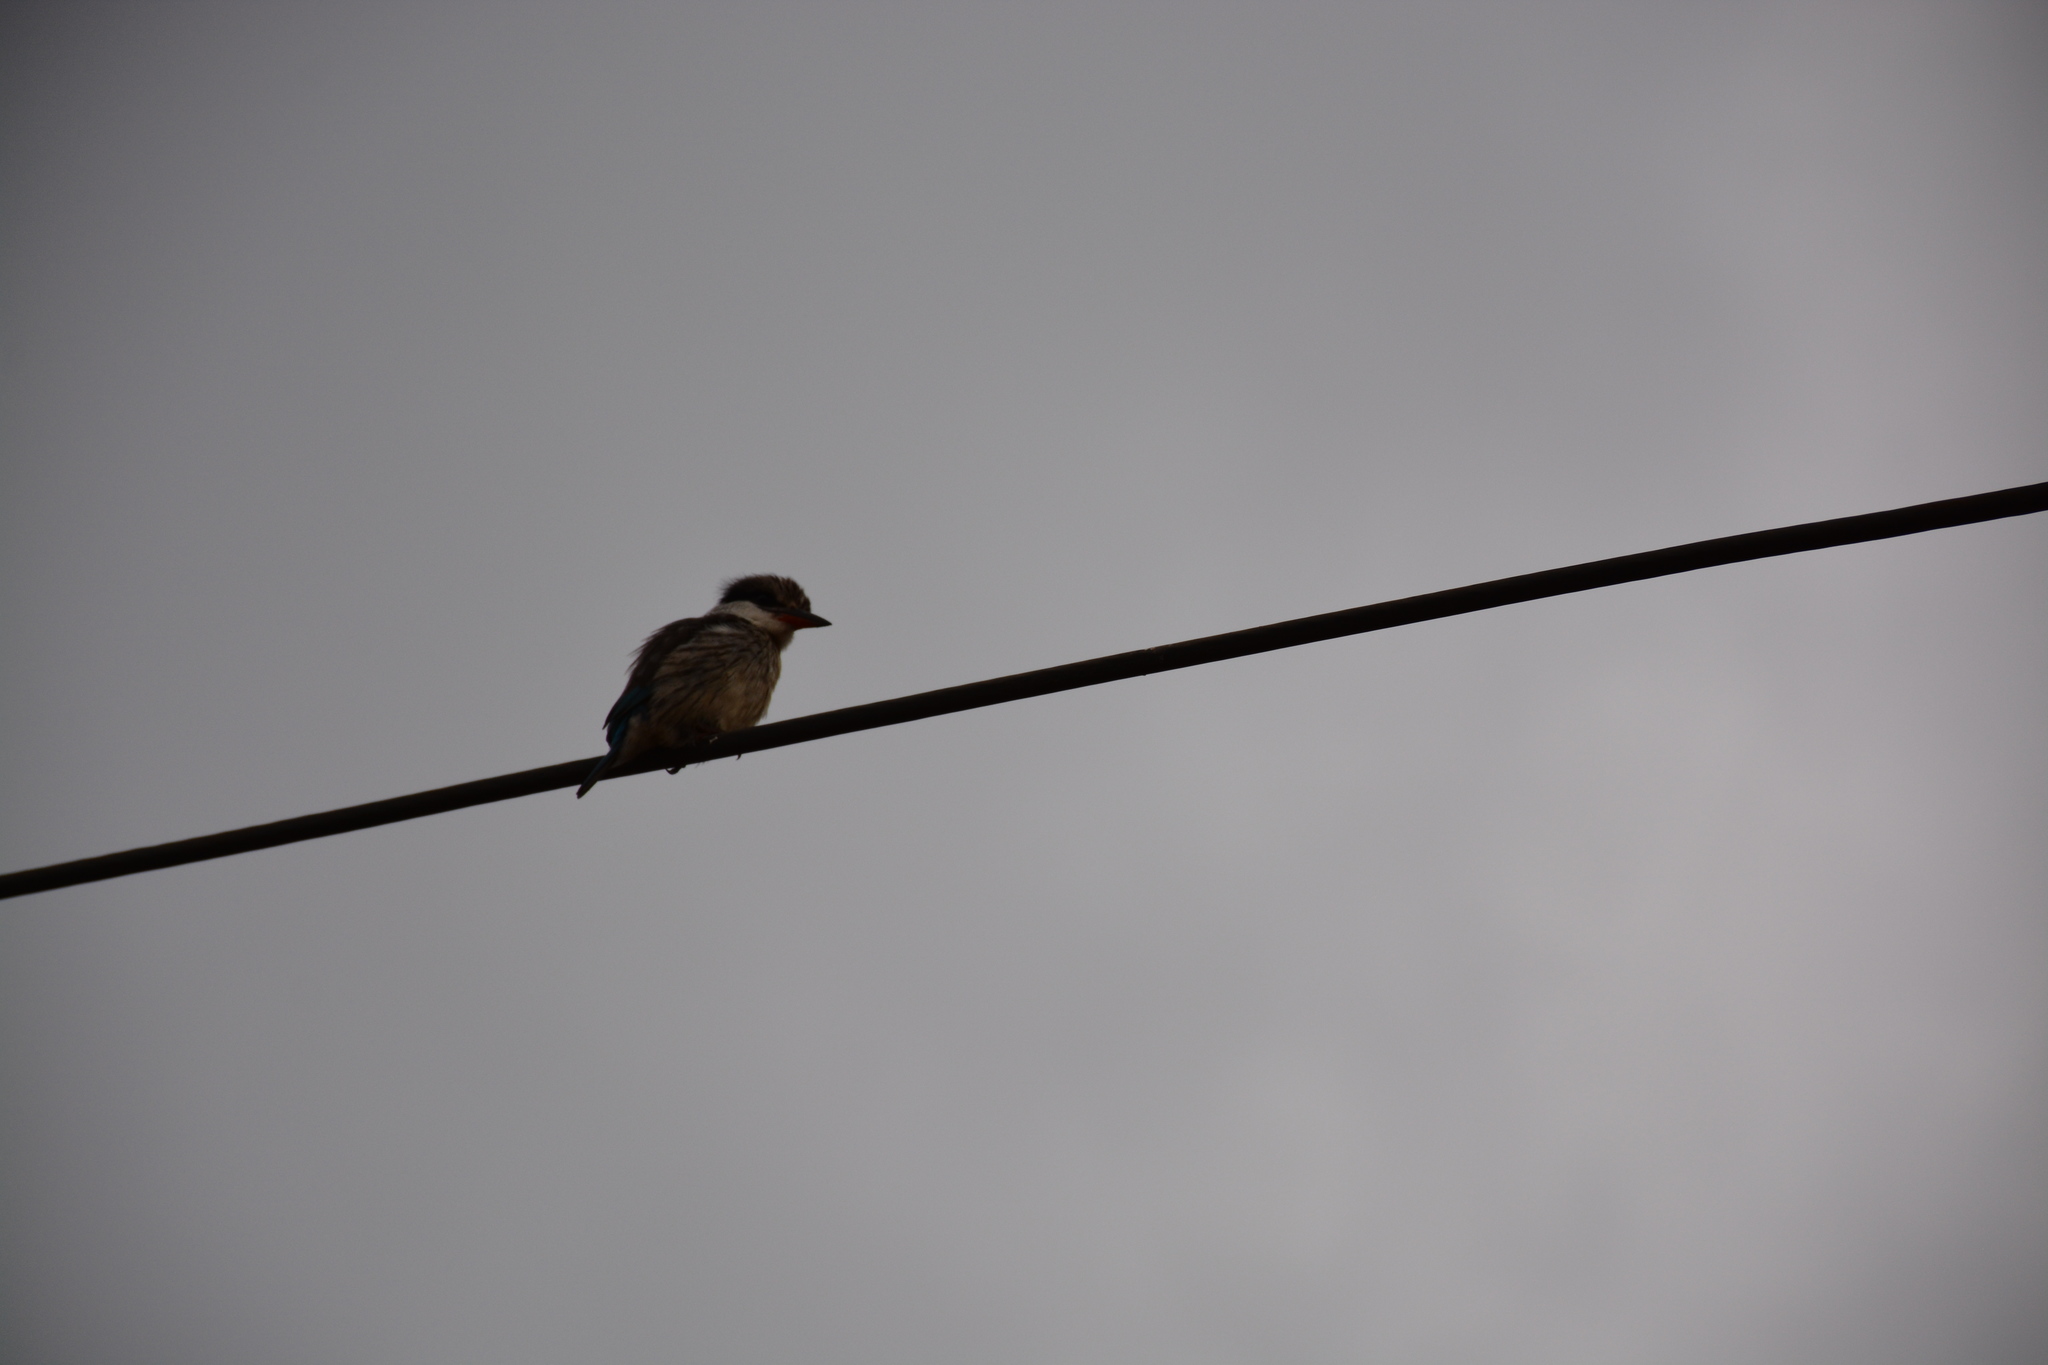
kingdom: Animalia
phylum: Chordata
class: Aves
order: Coraciiformes
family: Alcedinidae
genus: Halcyon
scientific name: Halcyon chelicuti
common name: Striped kingfisher
